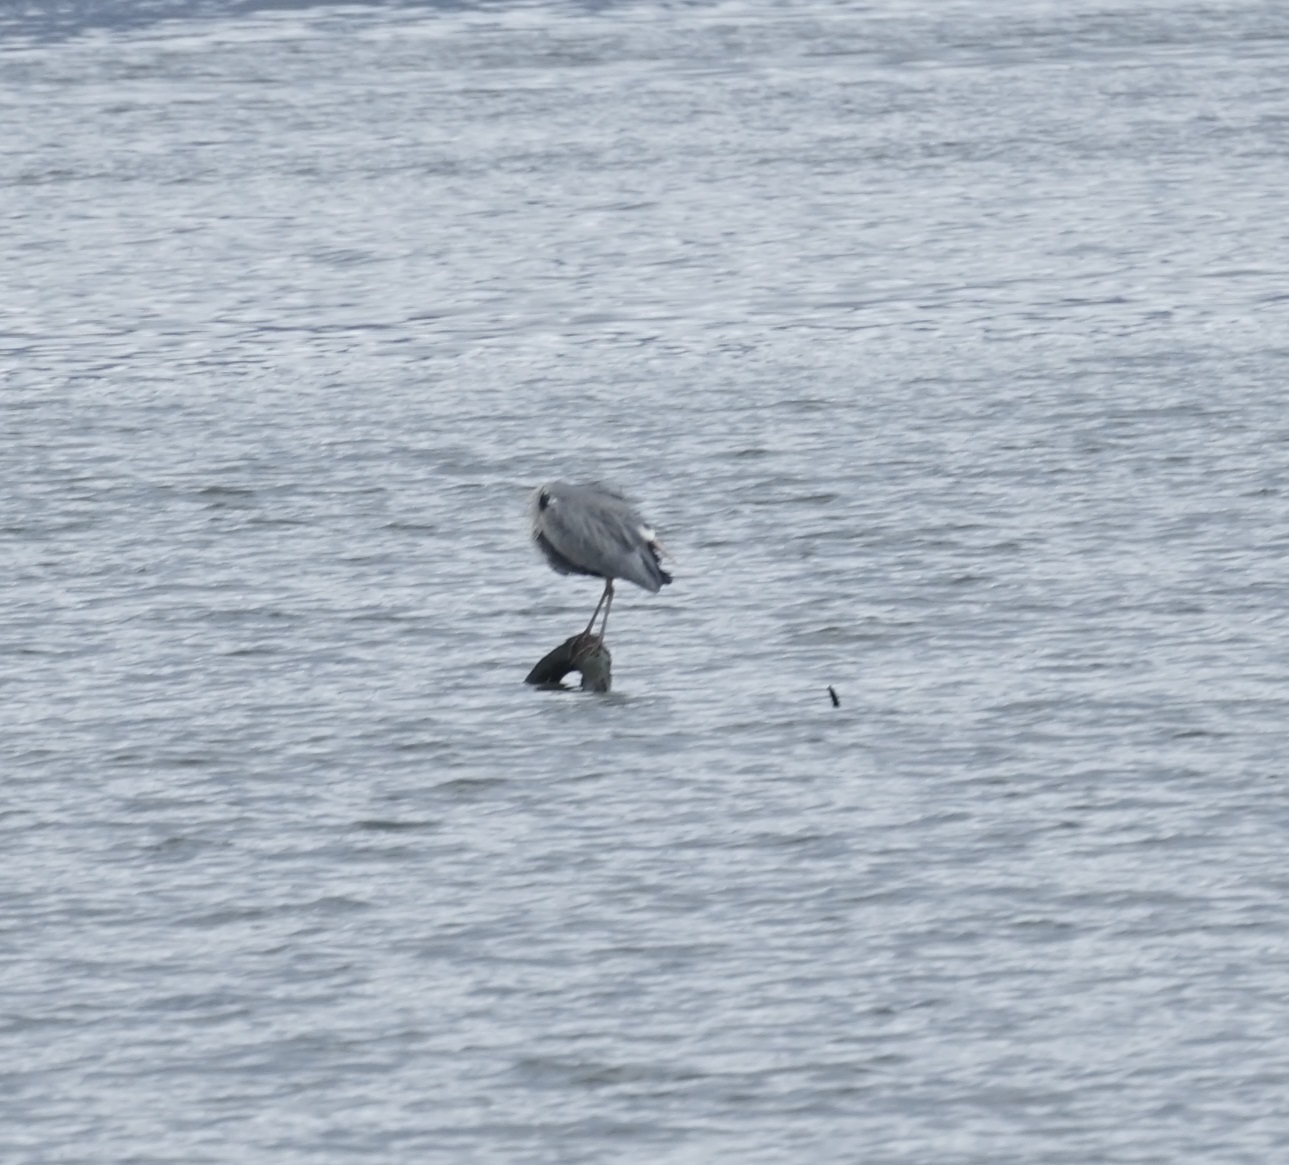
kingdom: Animalia
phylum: Chordata
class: Aves
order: Pelecaniformes
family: Ardeidae
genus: Ardea
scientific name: Ardea cinerea
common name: Grey heron
